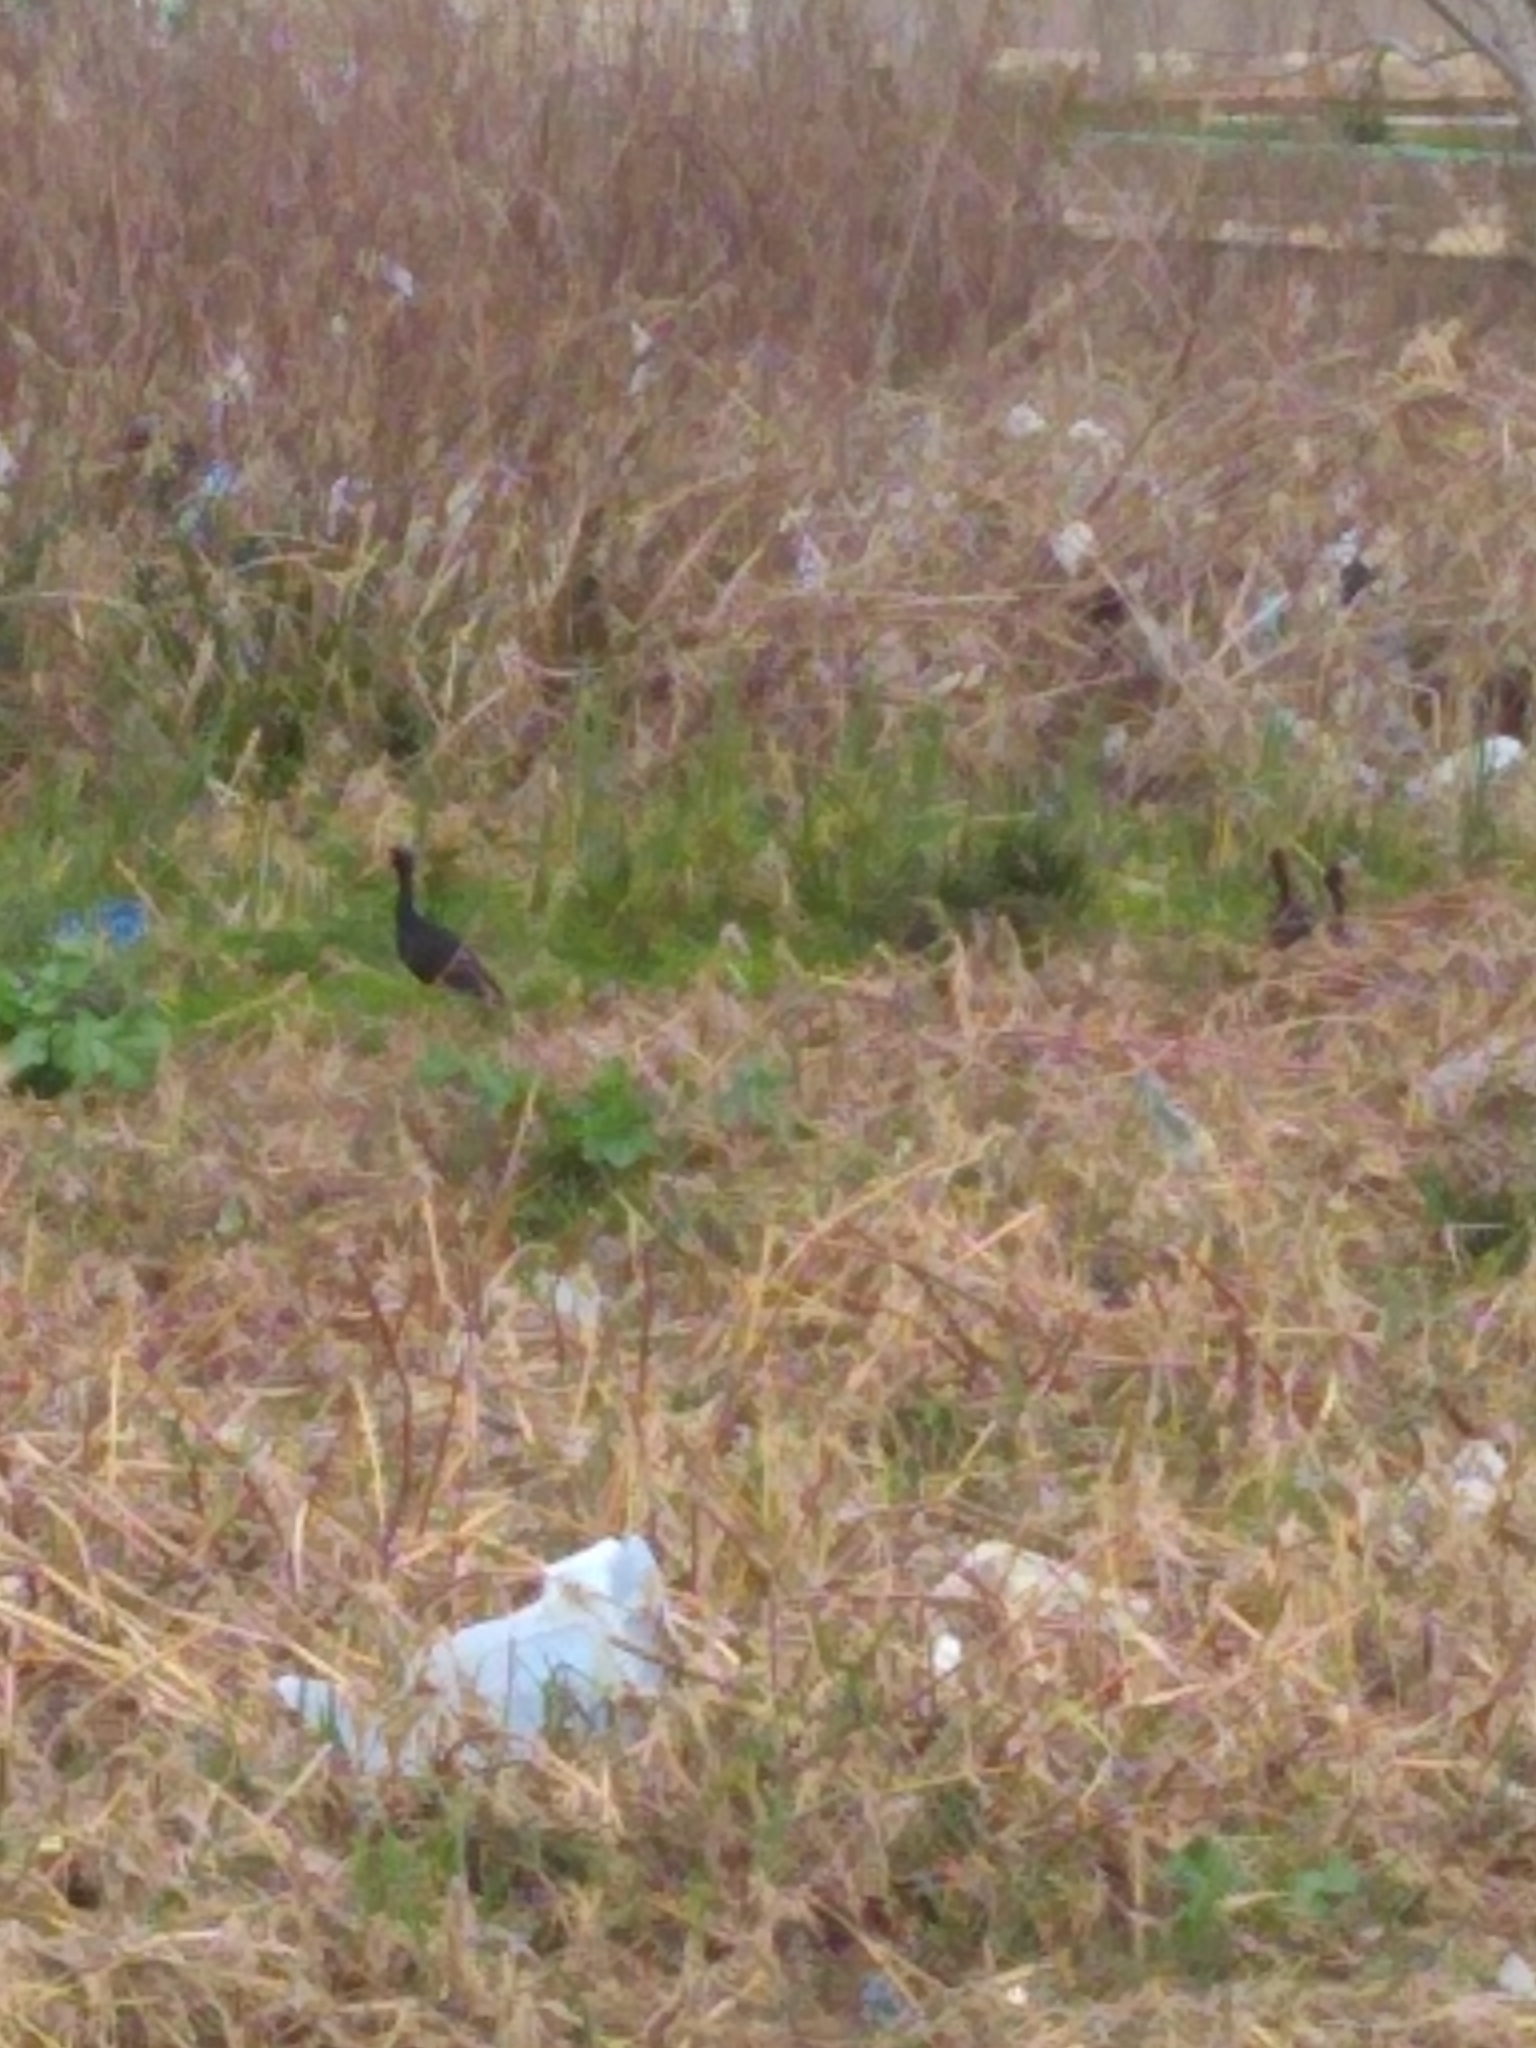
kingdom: Animalia
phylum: Chordata
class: Aves
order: Pelecaniformes
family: Threskiornithidae
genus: Phimosus
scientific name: Phimosus infuscatus
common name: Bare-faced ibis
